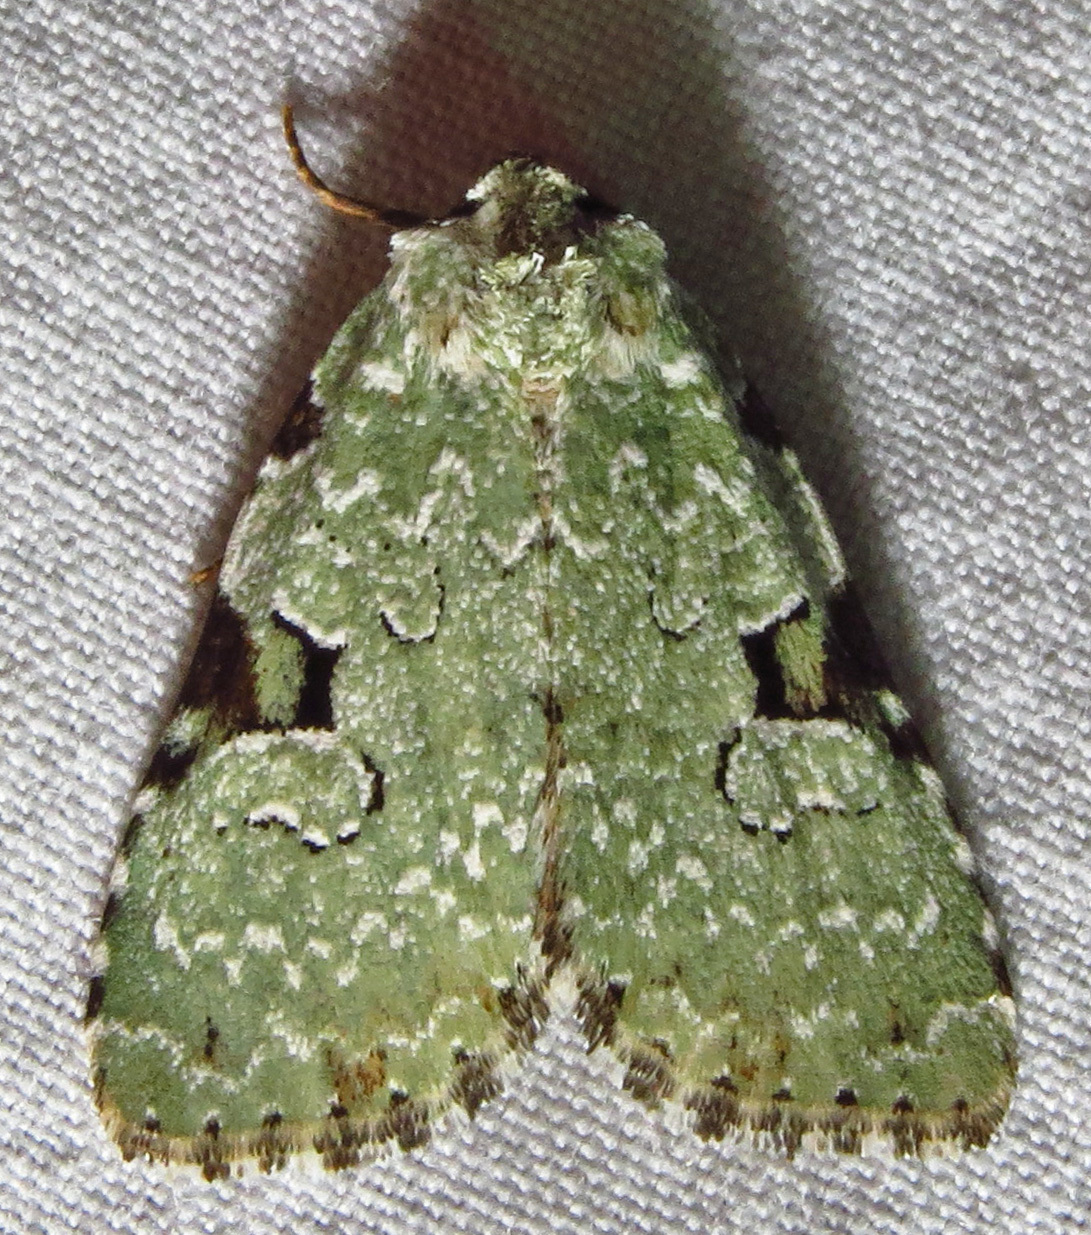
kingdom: Animalia
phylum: Arthropoda
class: Insecta
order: Lepidoptera
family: Noctuidae
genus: Leuconycta
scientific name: Leuconycta diphteroides
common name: Green leuconycta moth
